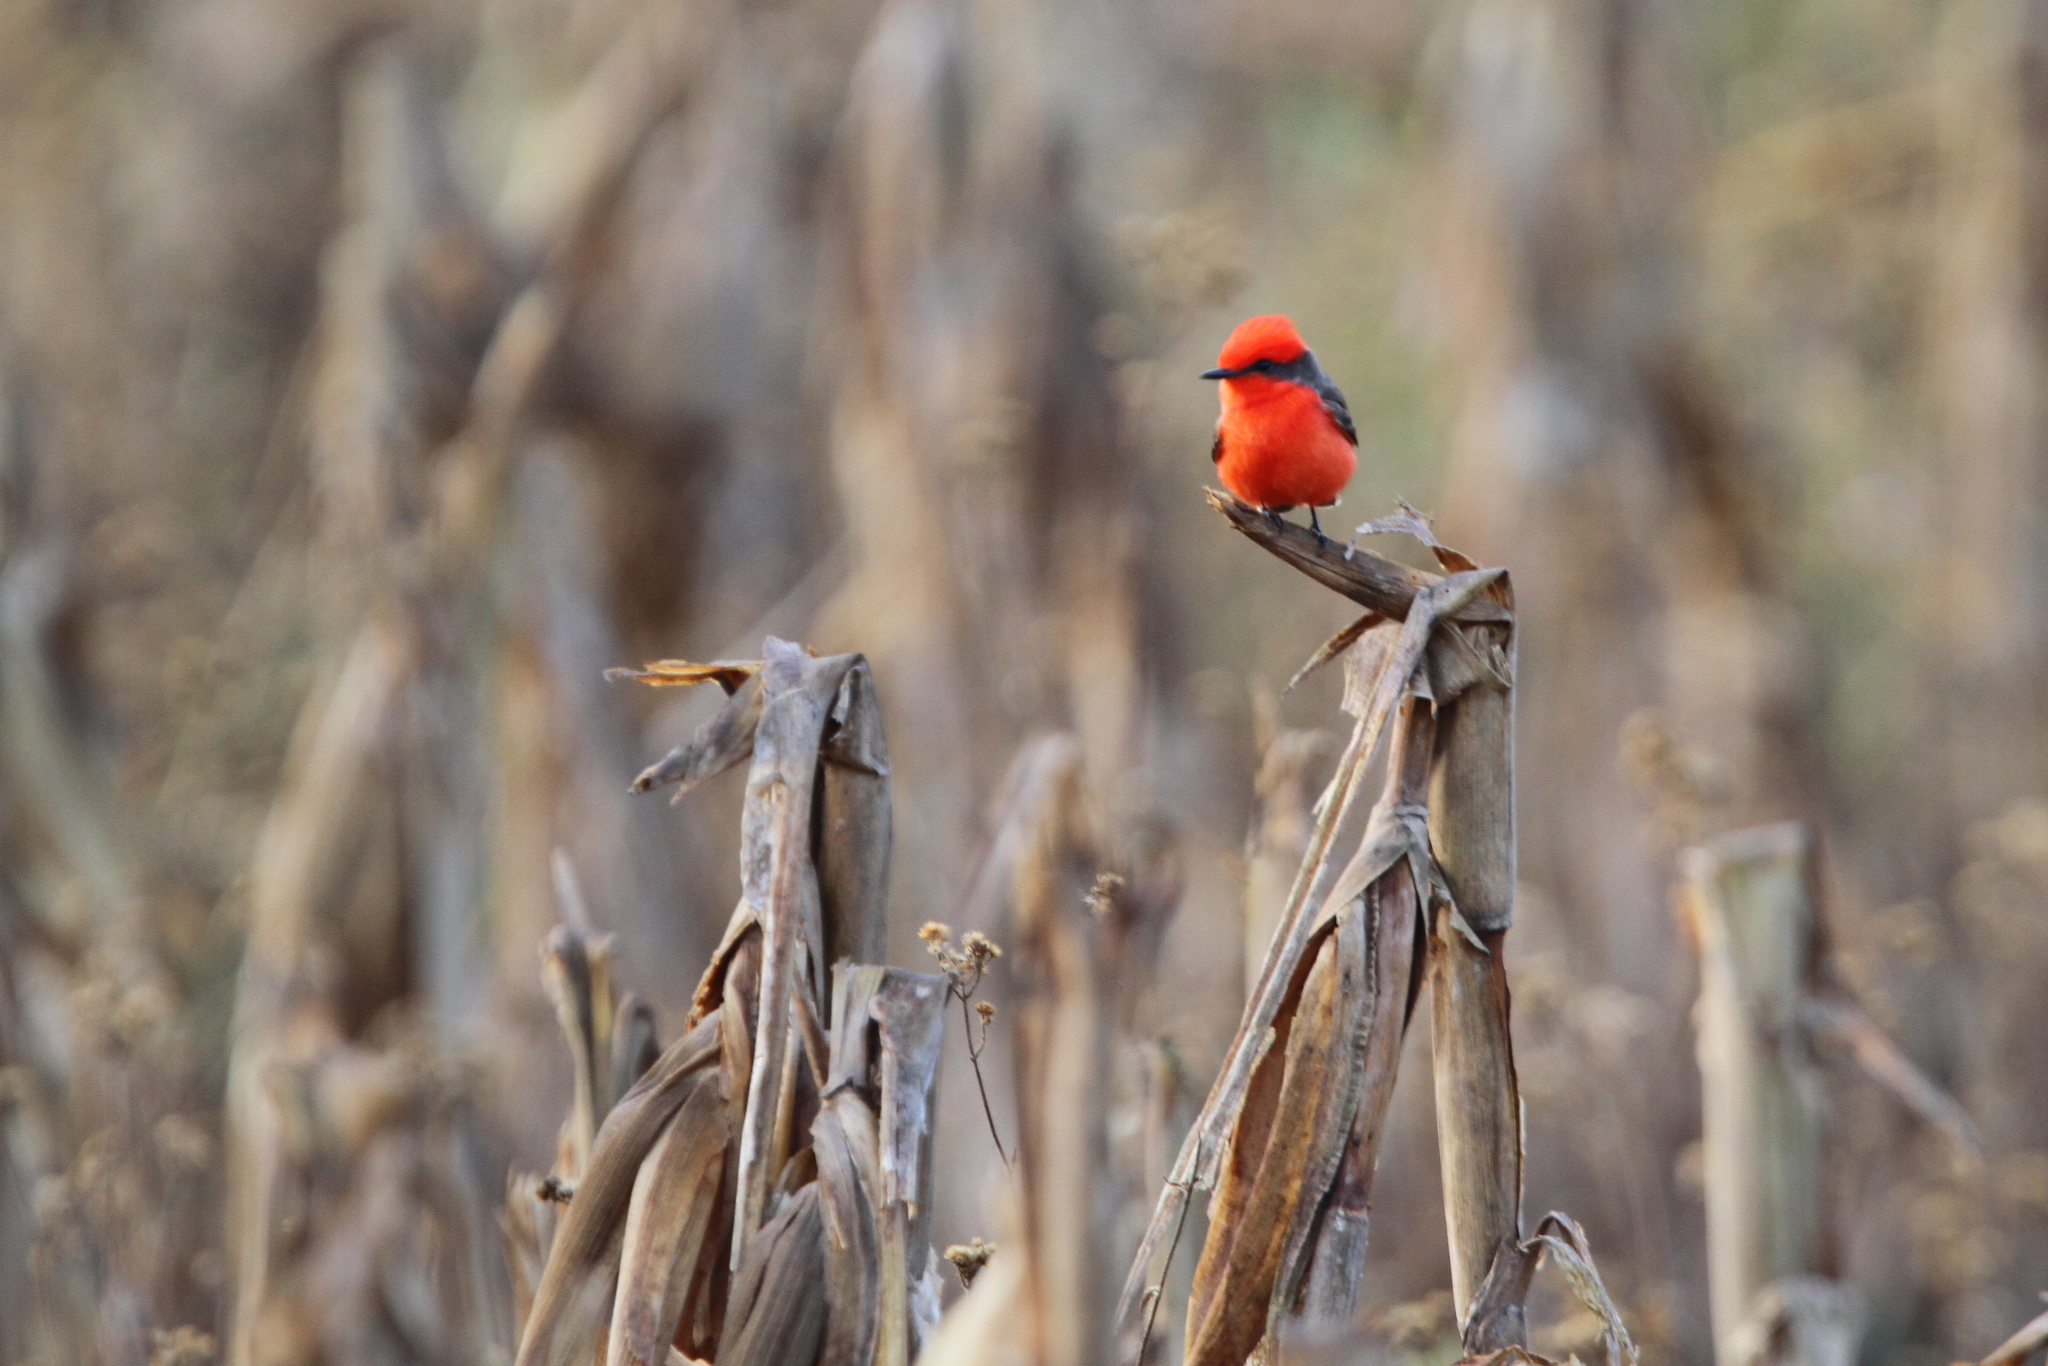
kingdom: Animalia
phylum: Chordata
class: Aves
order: Passeriformes
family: Tyrannidae
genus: Pyrocephalus
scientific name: Pyrocephalus rubinus
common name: Vermilion flycatcher
